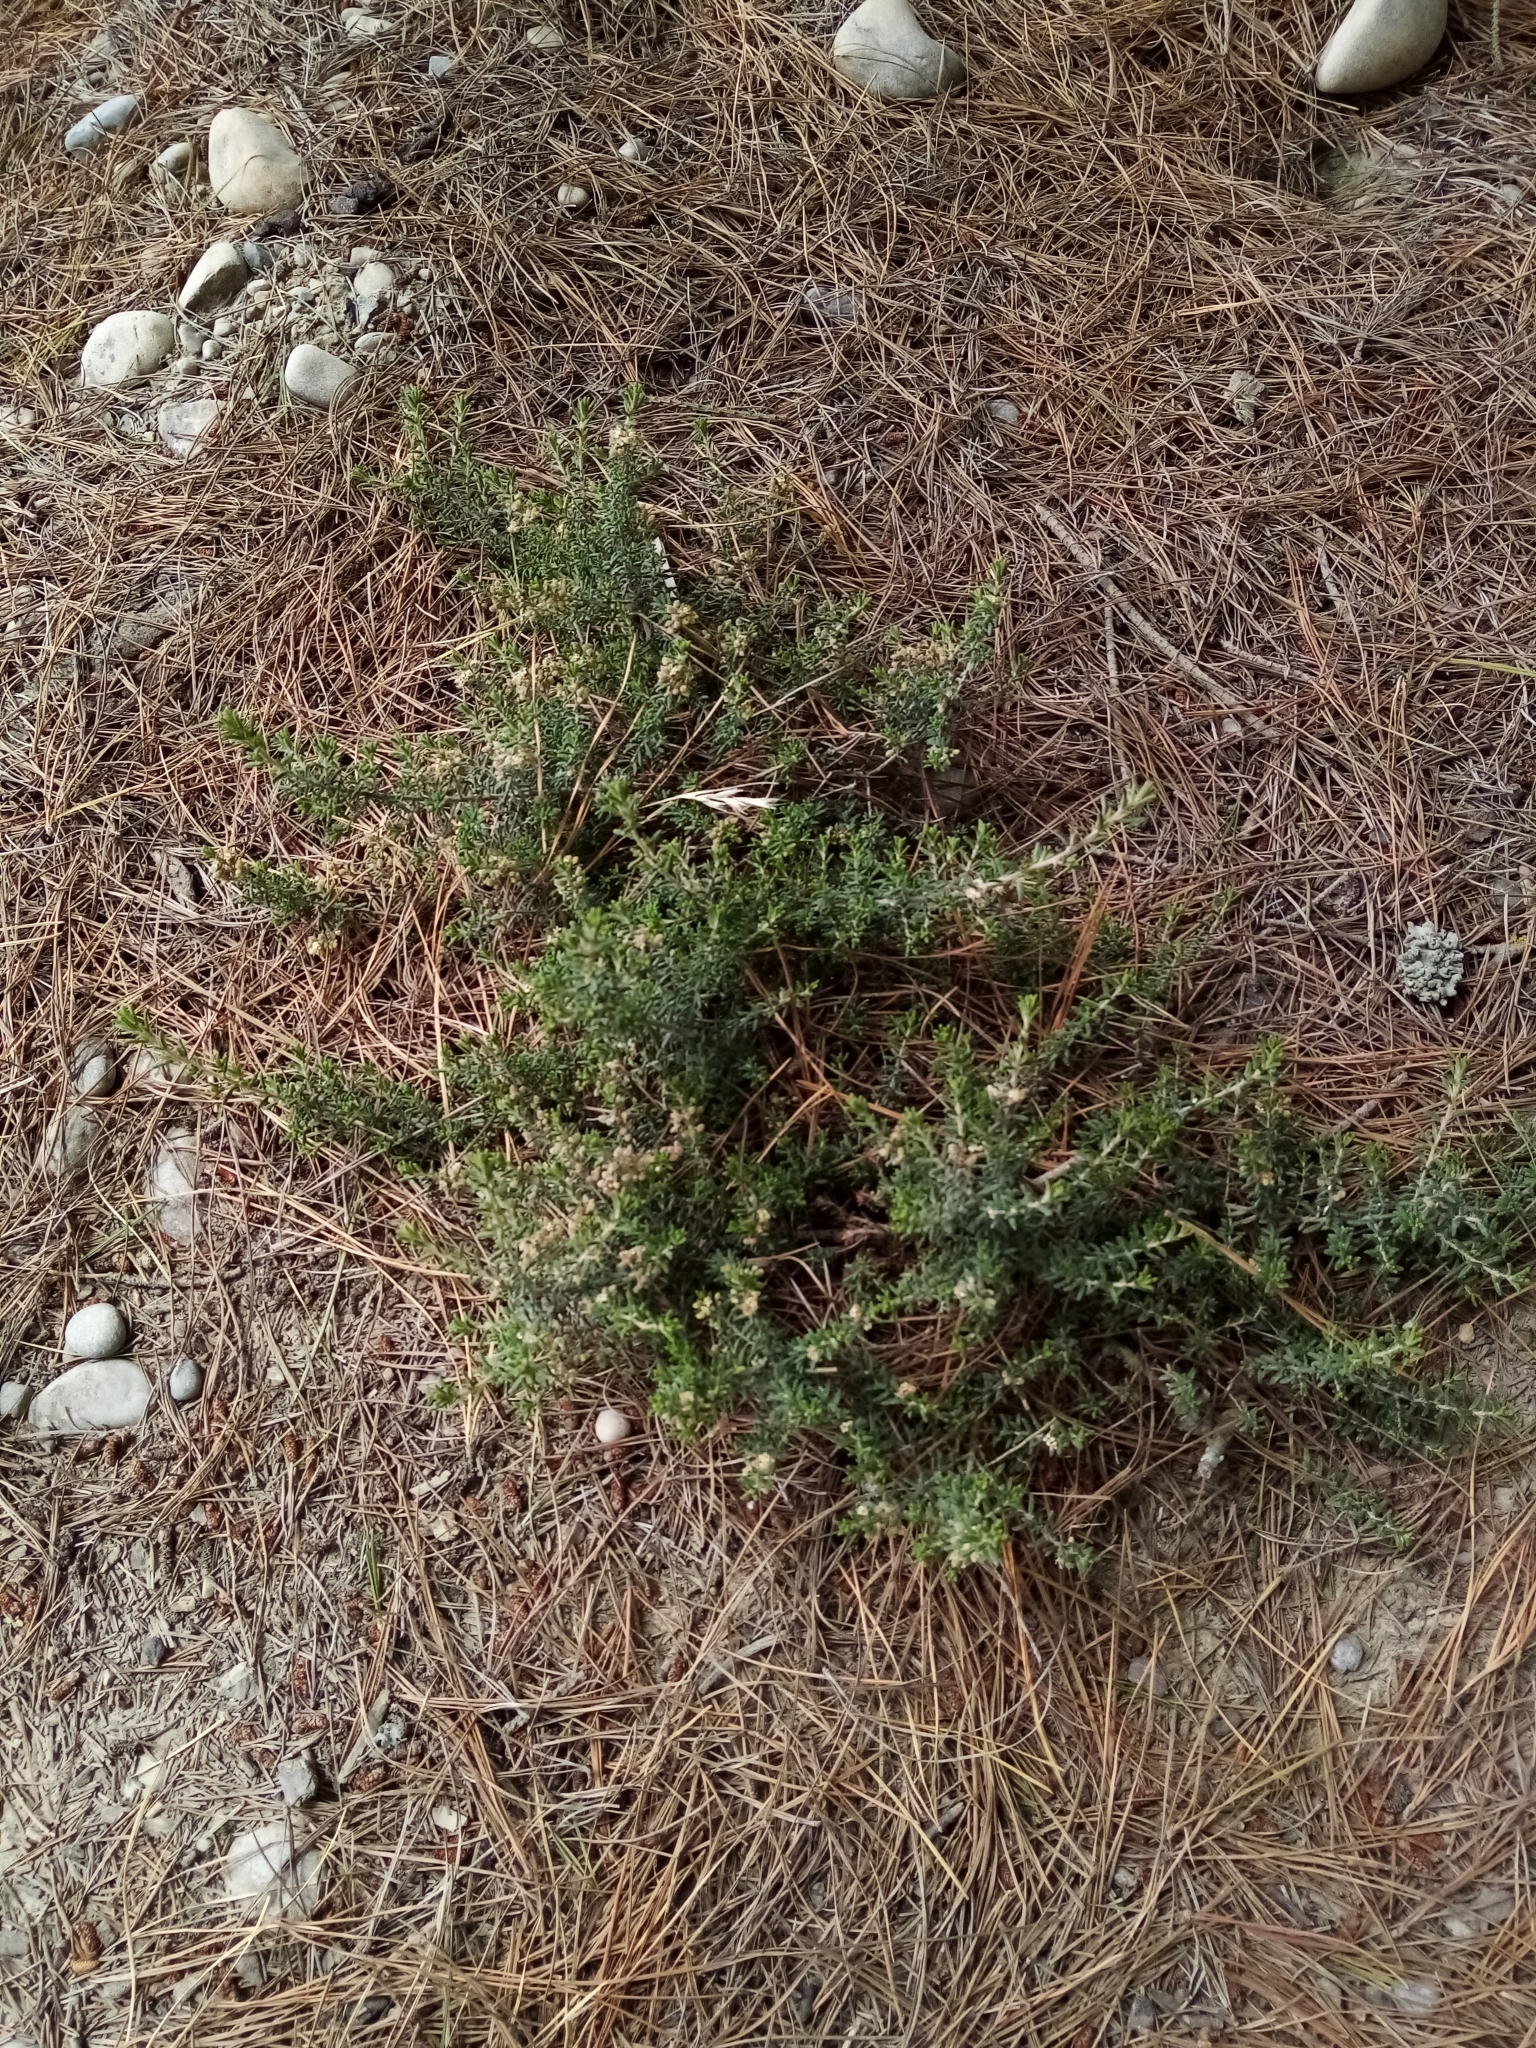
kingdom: Plantae
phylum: Tracheophyta
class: Magnoliopsida
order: Rosales
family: Rhamnaceae
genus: Pomaderris
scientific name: Pomaderris amoena
